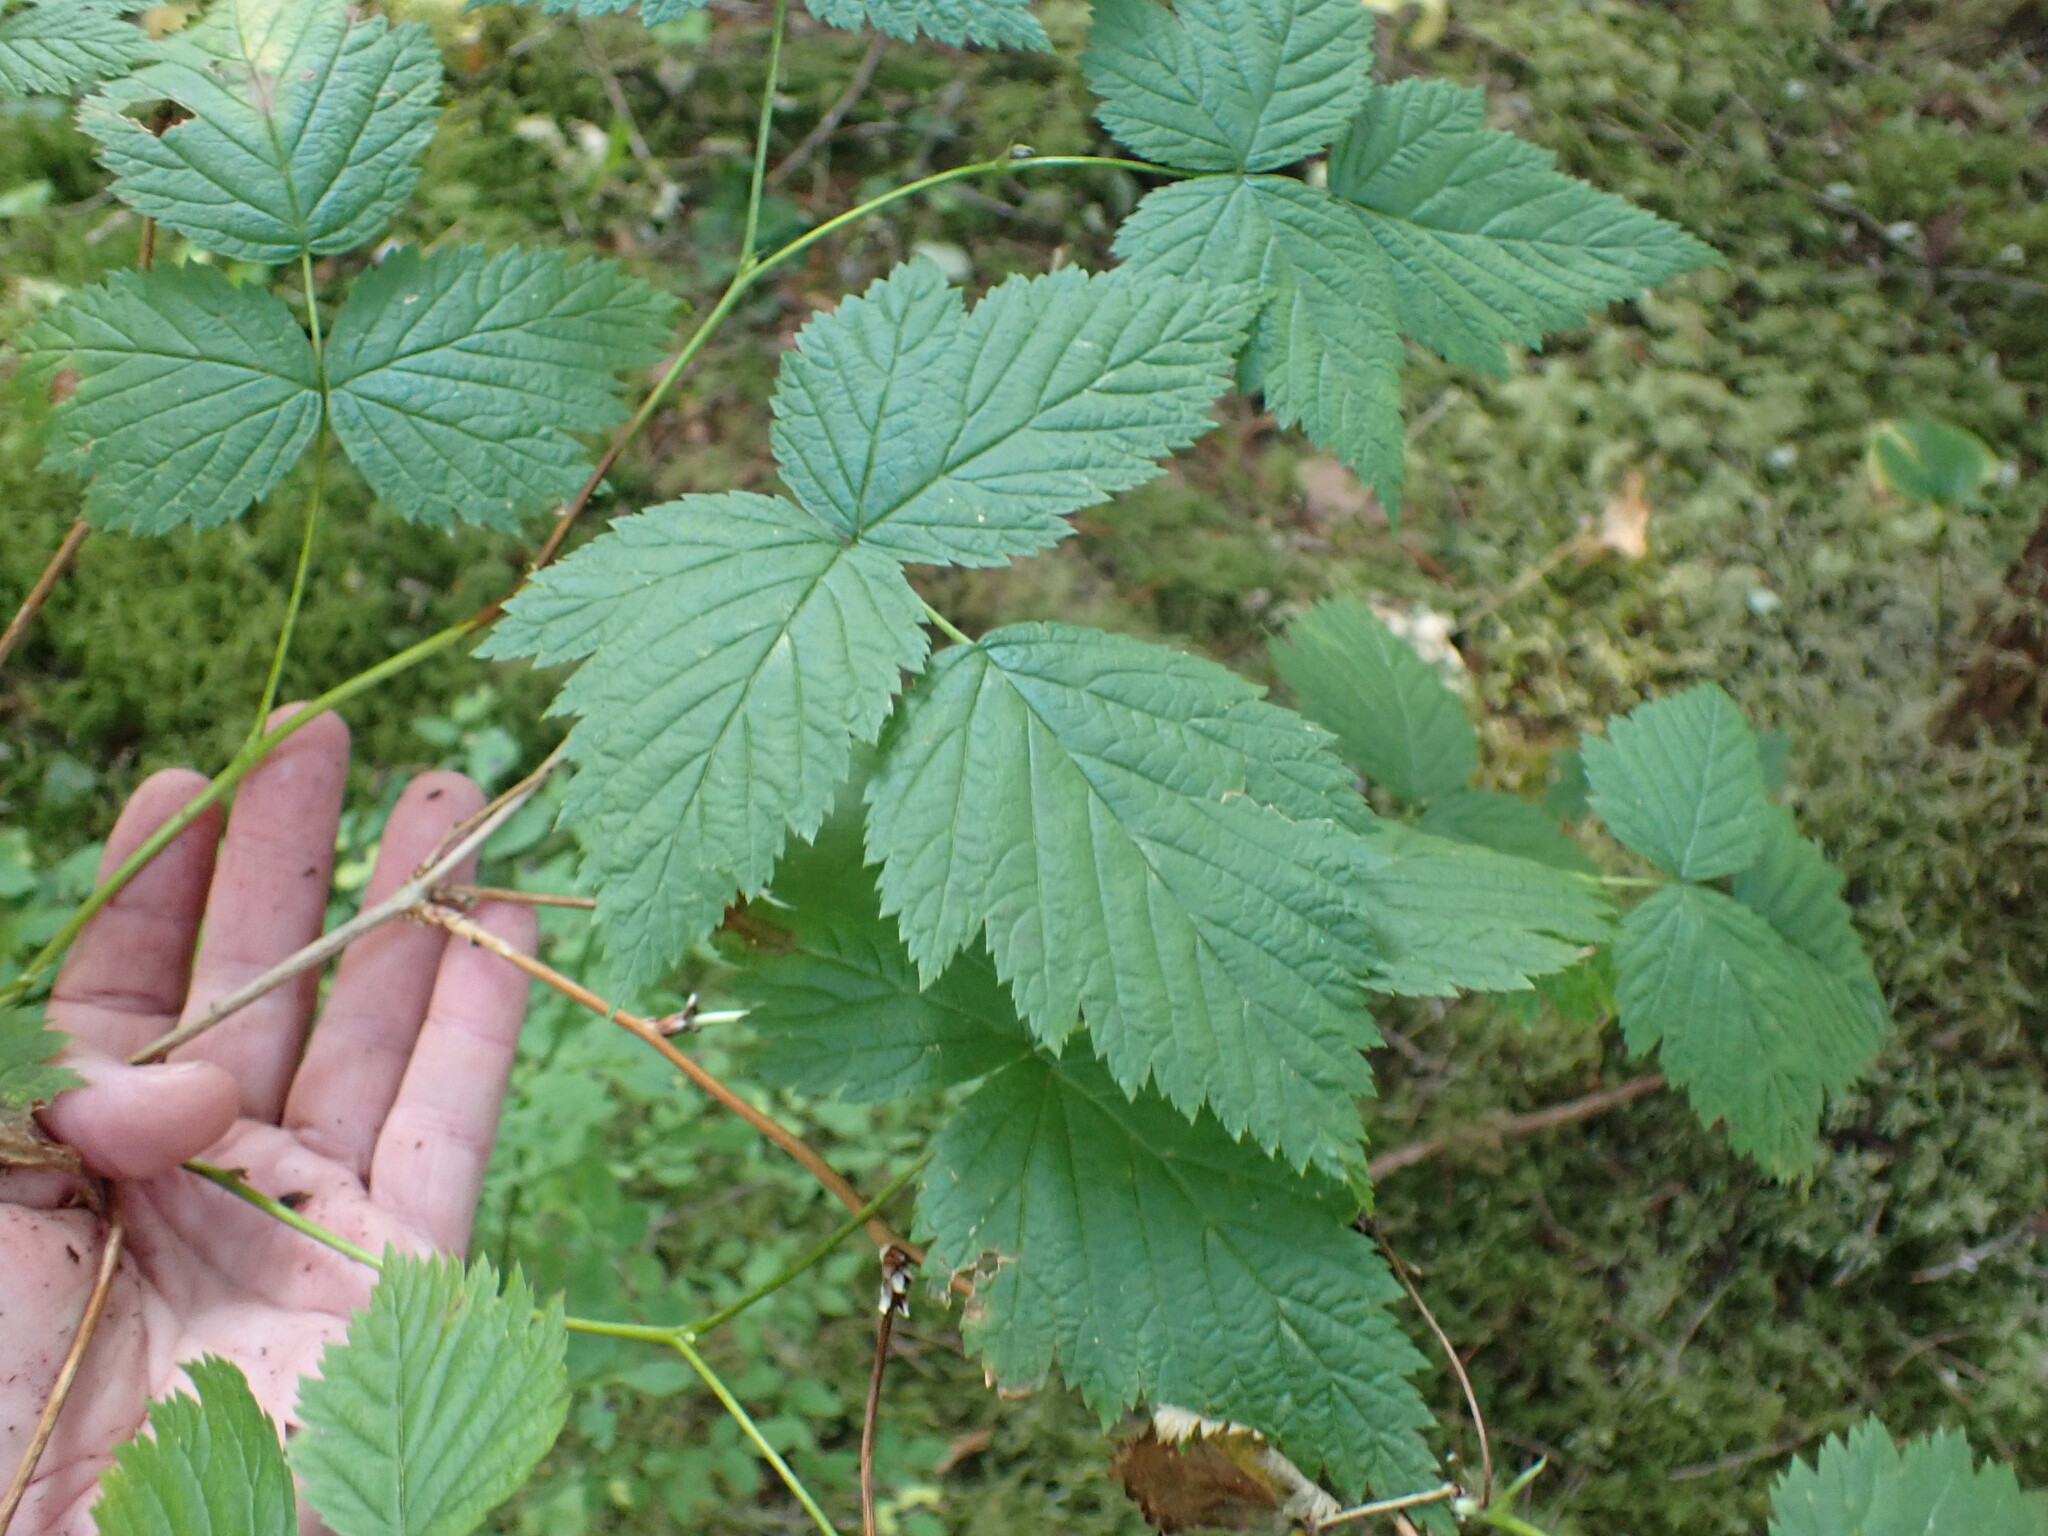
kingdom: Plantae
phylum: Tracheophyta
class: Magnoliopsida
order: Rosales
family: Rosaceae
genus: Rubus
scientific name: Rubus spectabilis
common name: Salmonberry
